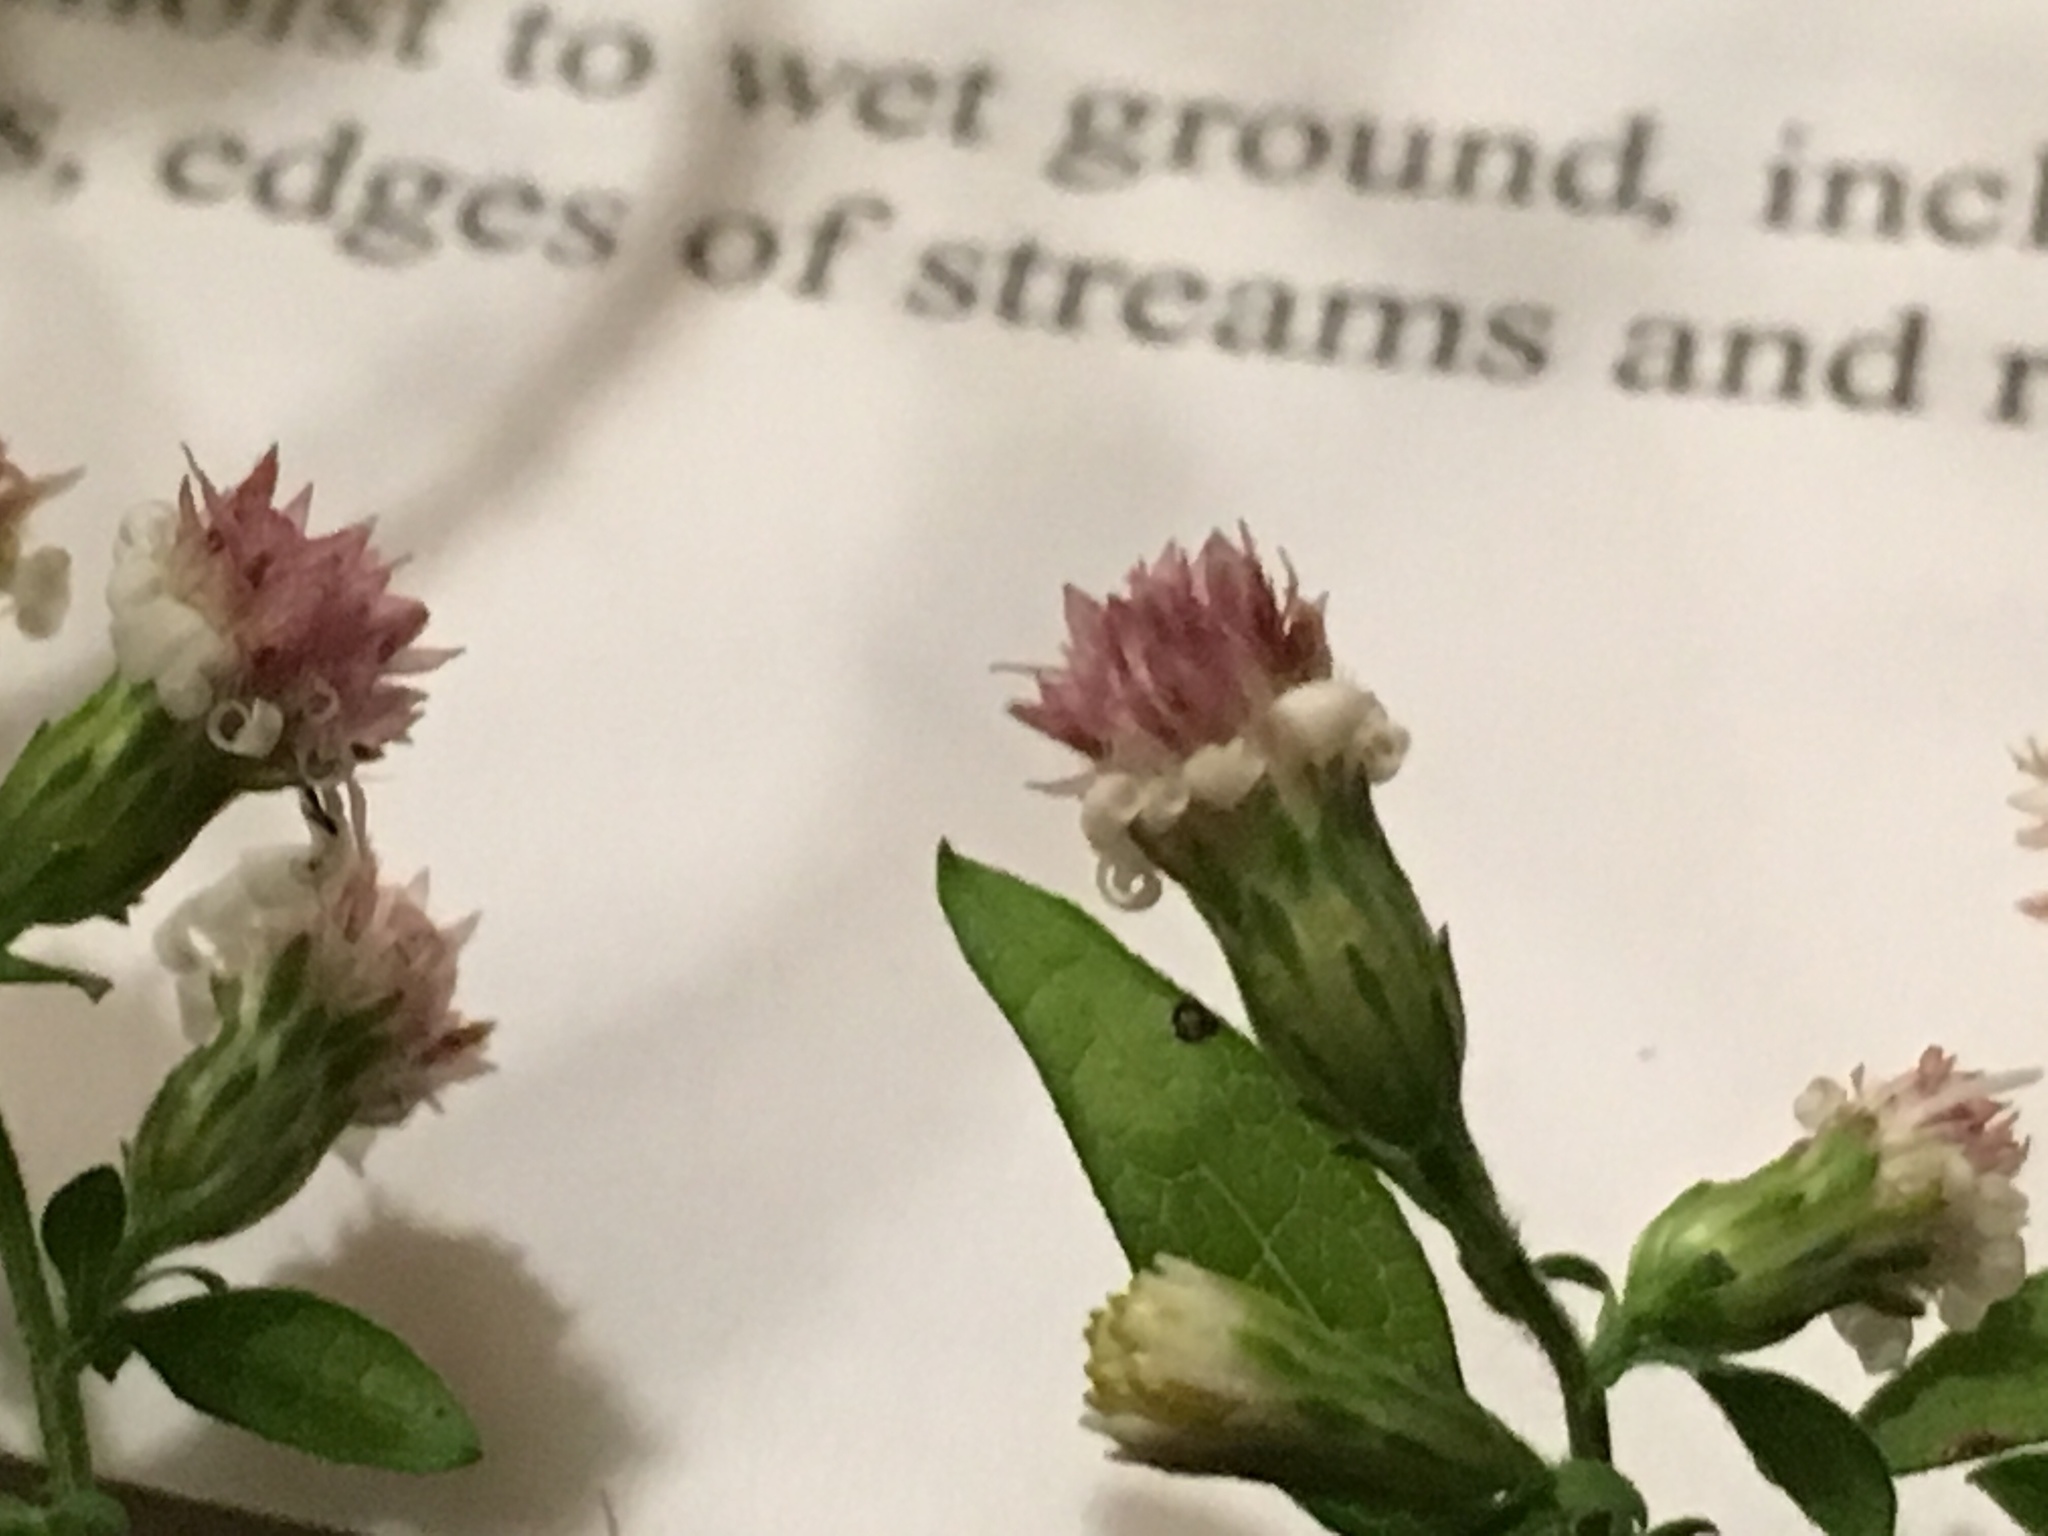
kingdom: Plantae
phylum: Tracheophyta
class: Magnoliopsida
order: Asterales
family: Asteraceae
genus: Symphyotrichum
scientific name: Symphyotrichum lateriflorum
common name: Calico aster
